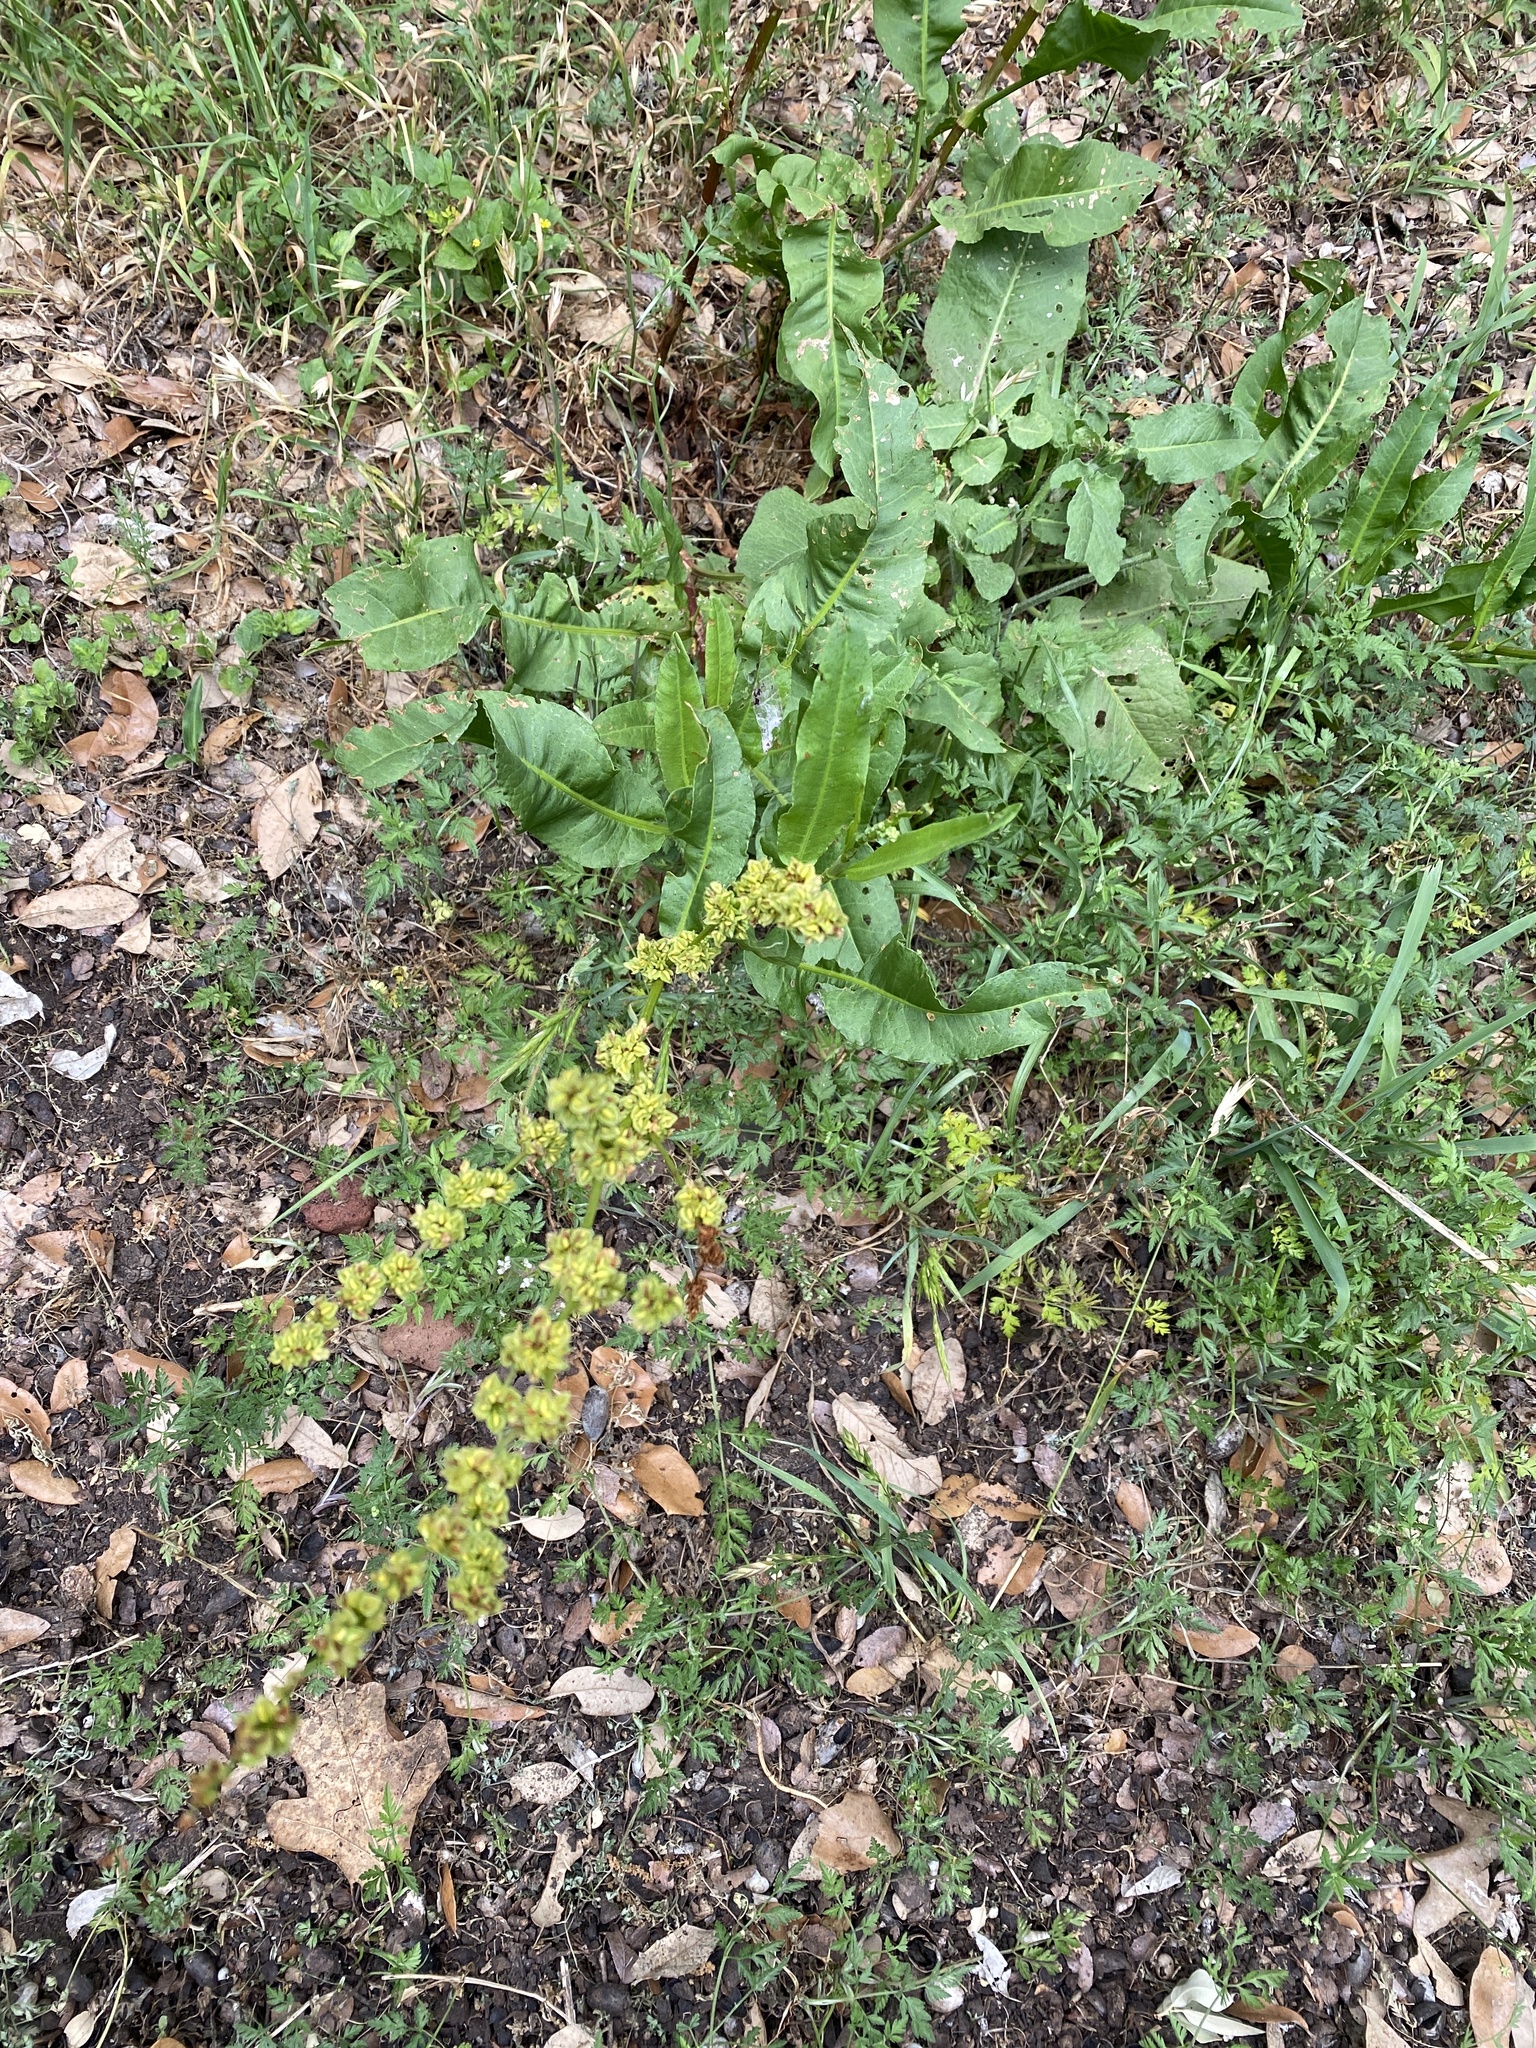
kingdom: Plantae
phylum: Tracheophyta
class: Magnoliopsida
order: Caryophyllales
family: Polygonaceae
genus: Rumex
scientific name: Rumex crispus
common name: Curled dock
